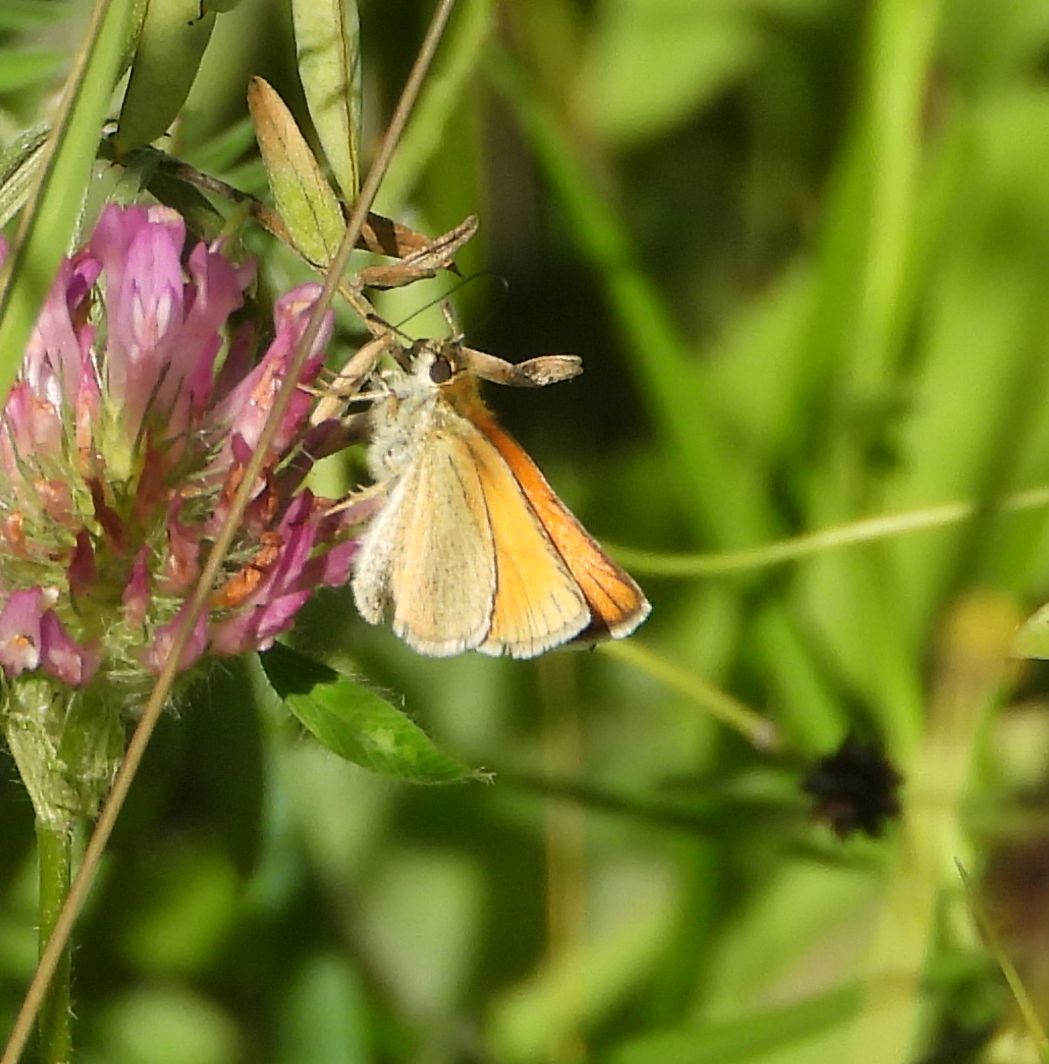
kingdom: Animalia
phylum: Arthropoda
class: Insecta
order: Lepidoptera
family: Hesperiidae
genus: Thymelicus
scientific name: Thymelicus lineola
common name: Essex skipper
